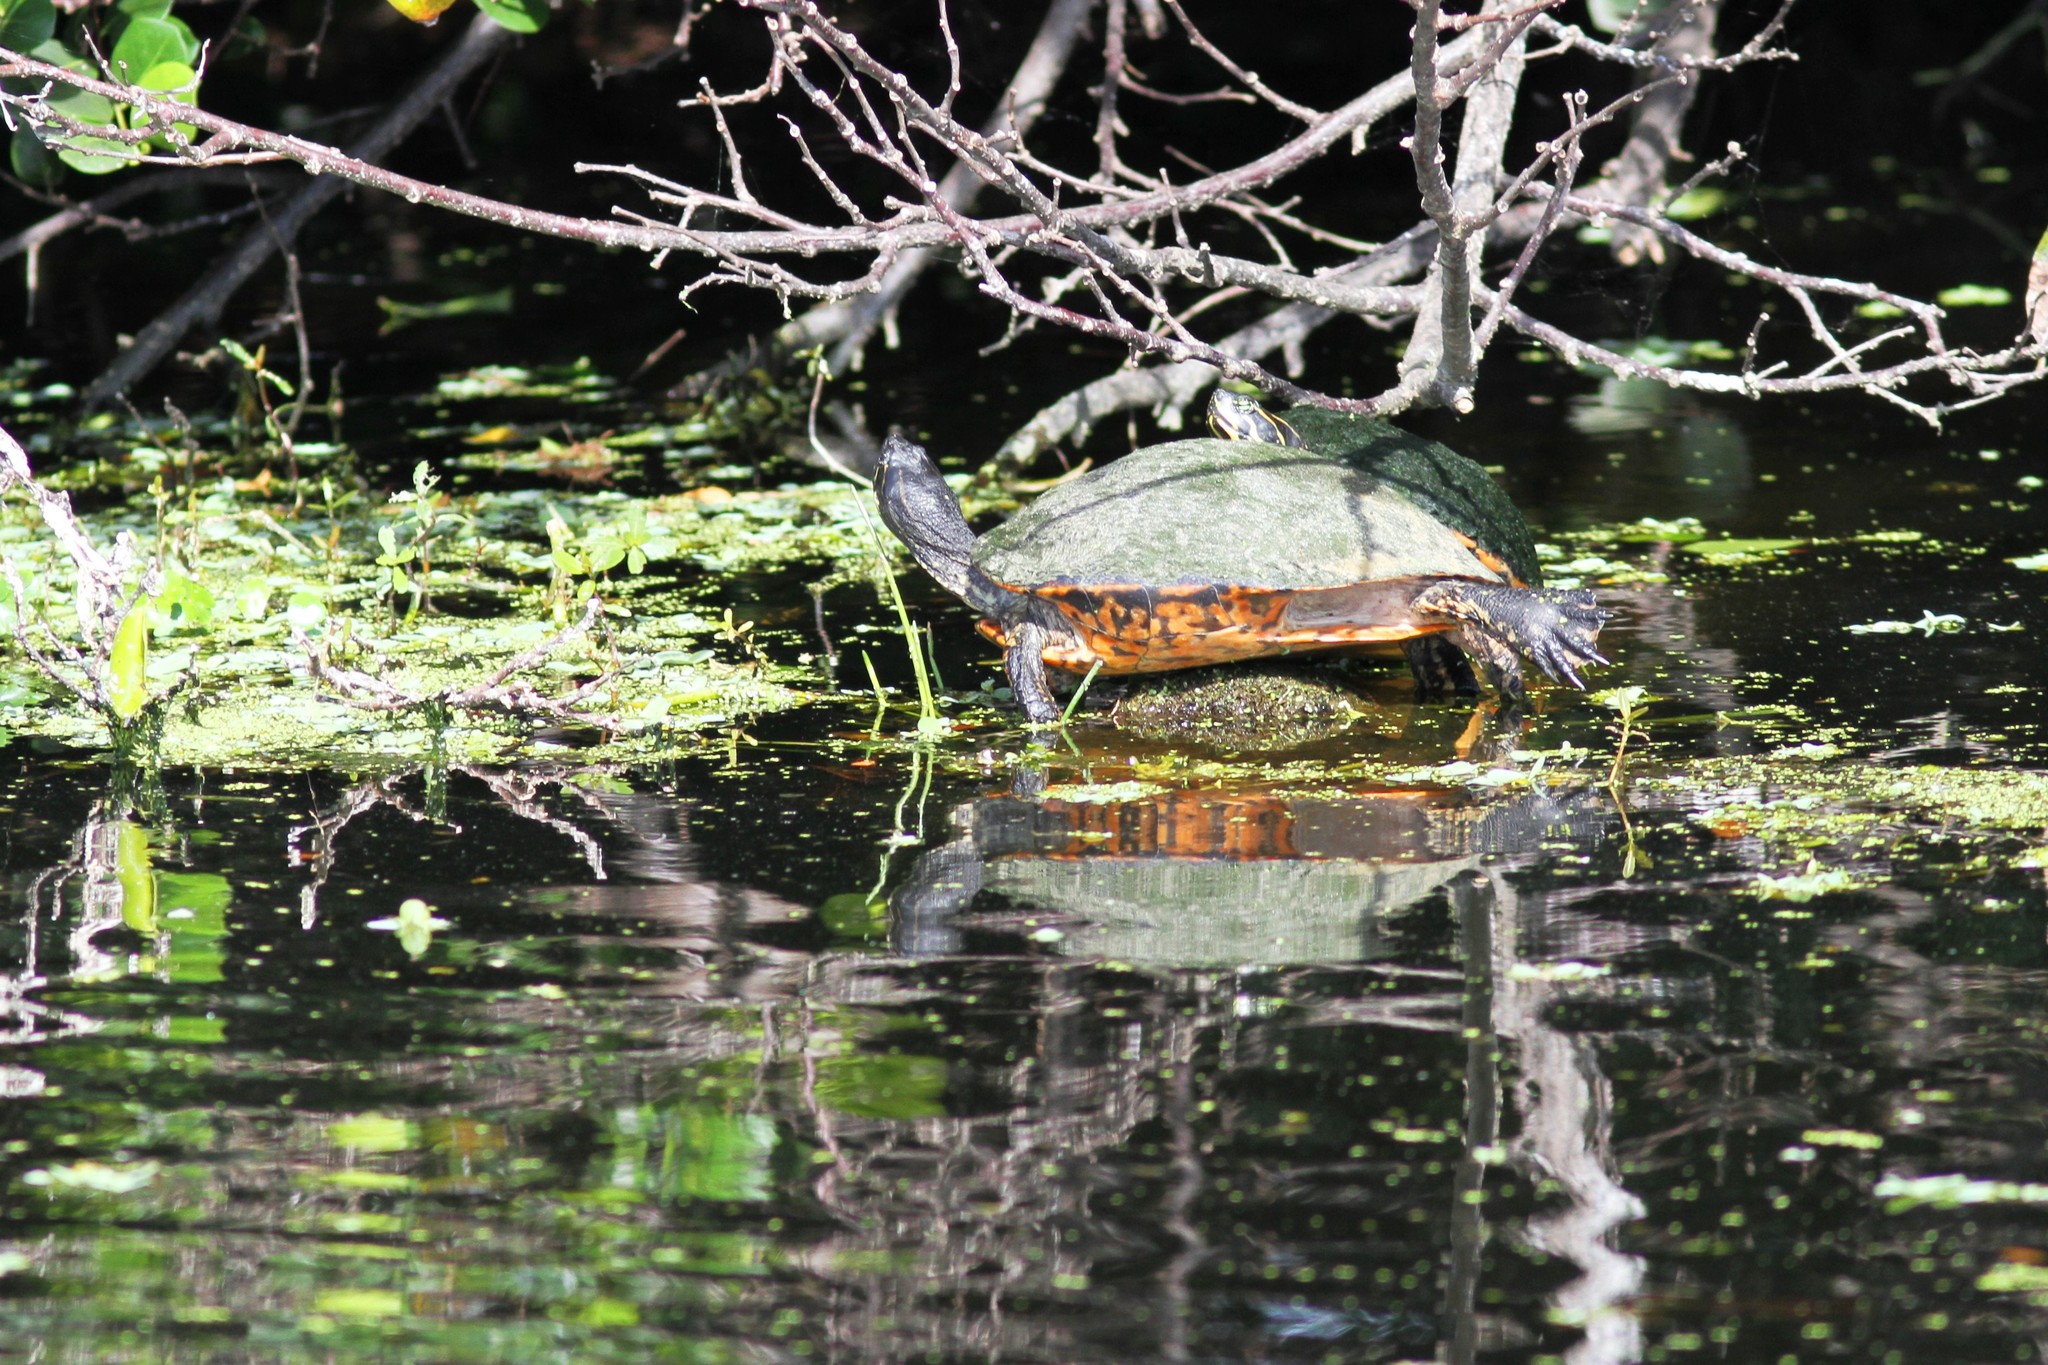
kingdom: Animalia
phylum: Chordata
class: Testudines
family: Emydidae
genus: Pseudemys
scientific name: Pseudemys nelsoni
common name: Florida red-bellied turtle
